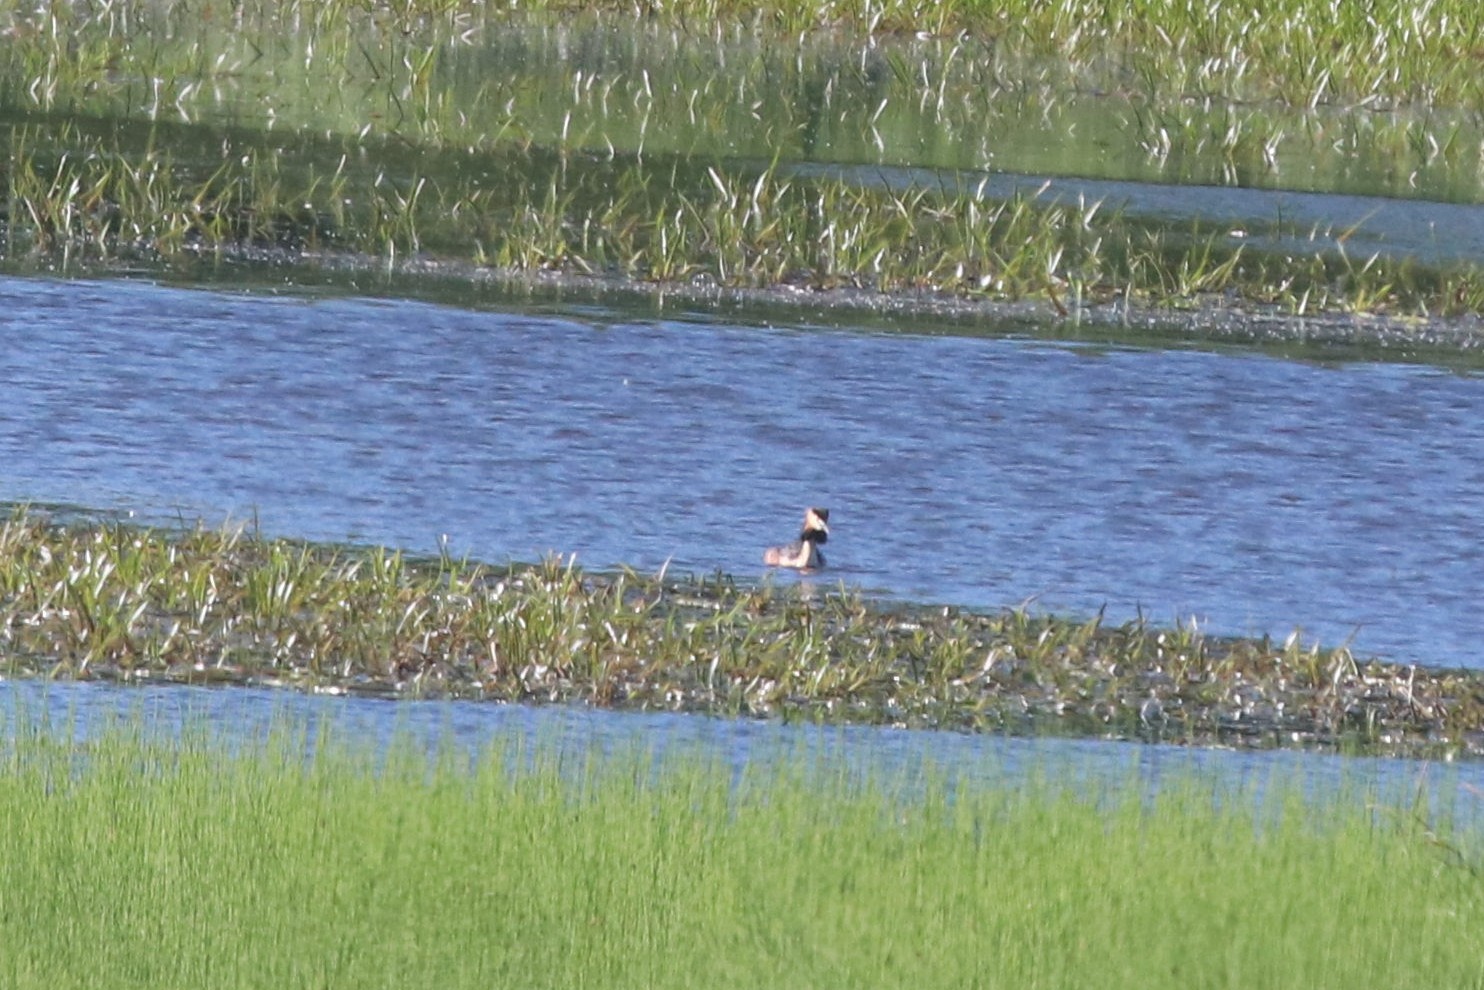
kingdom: Animalia
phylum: Chordata
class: Aves
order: Podicipediformes
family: Podicipedidae
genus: Podiceps
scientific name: Podiceps cristatus
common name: Great crested grebe
